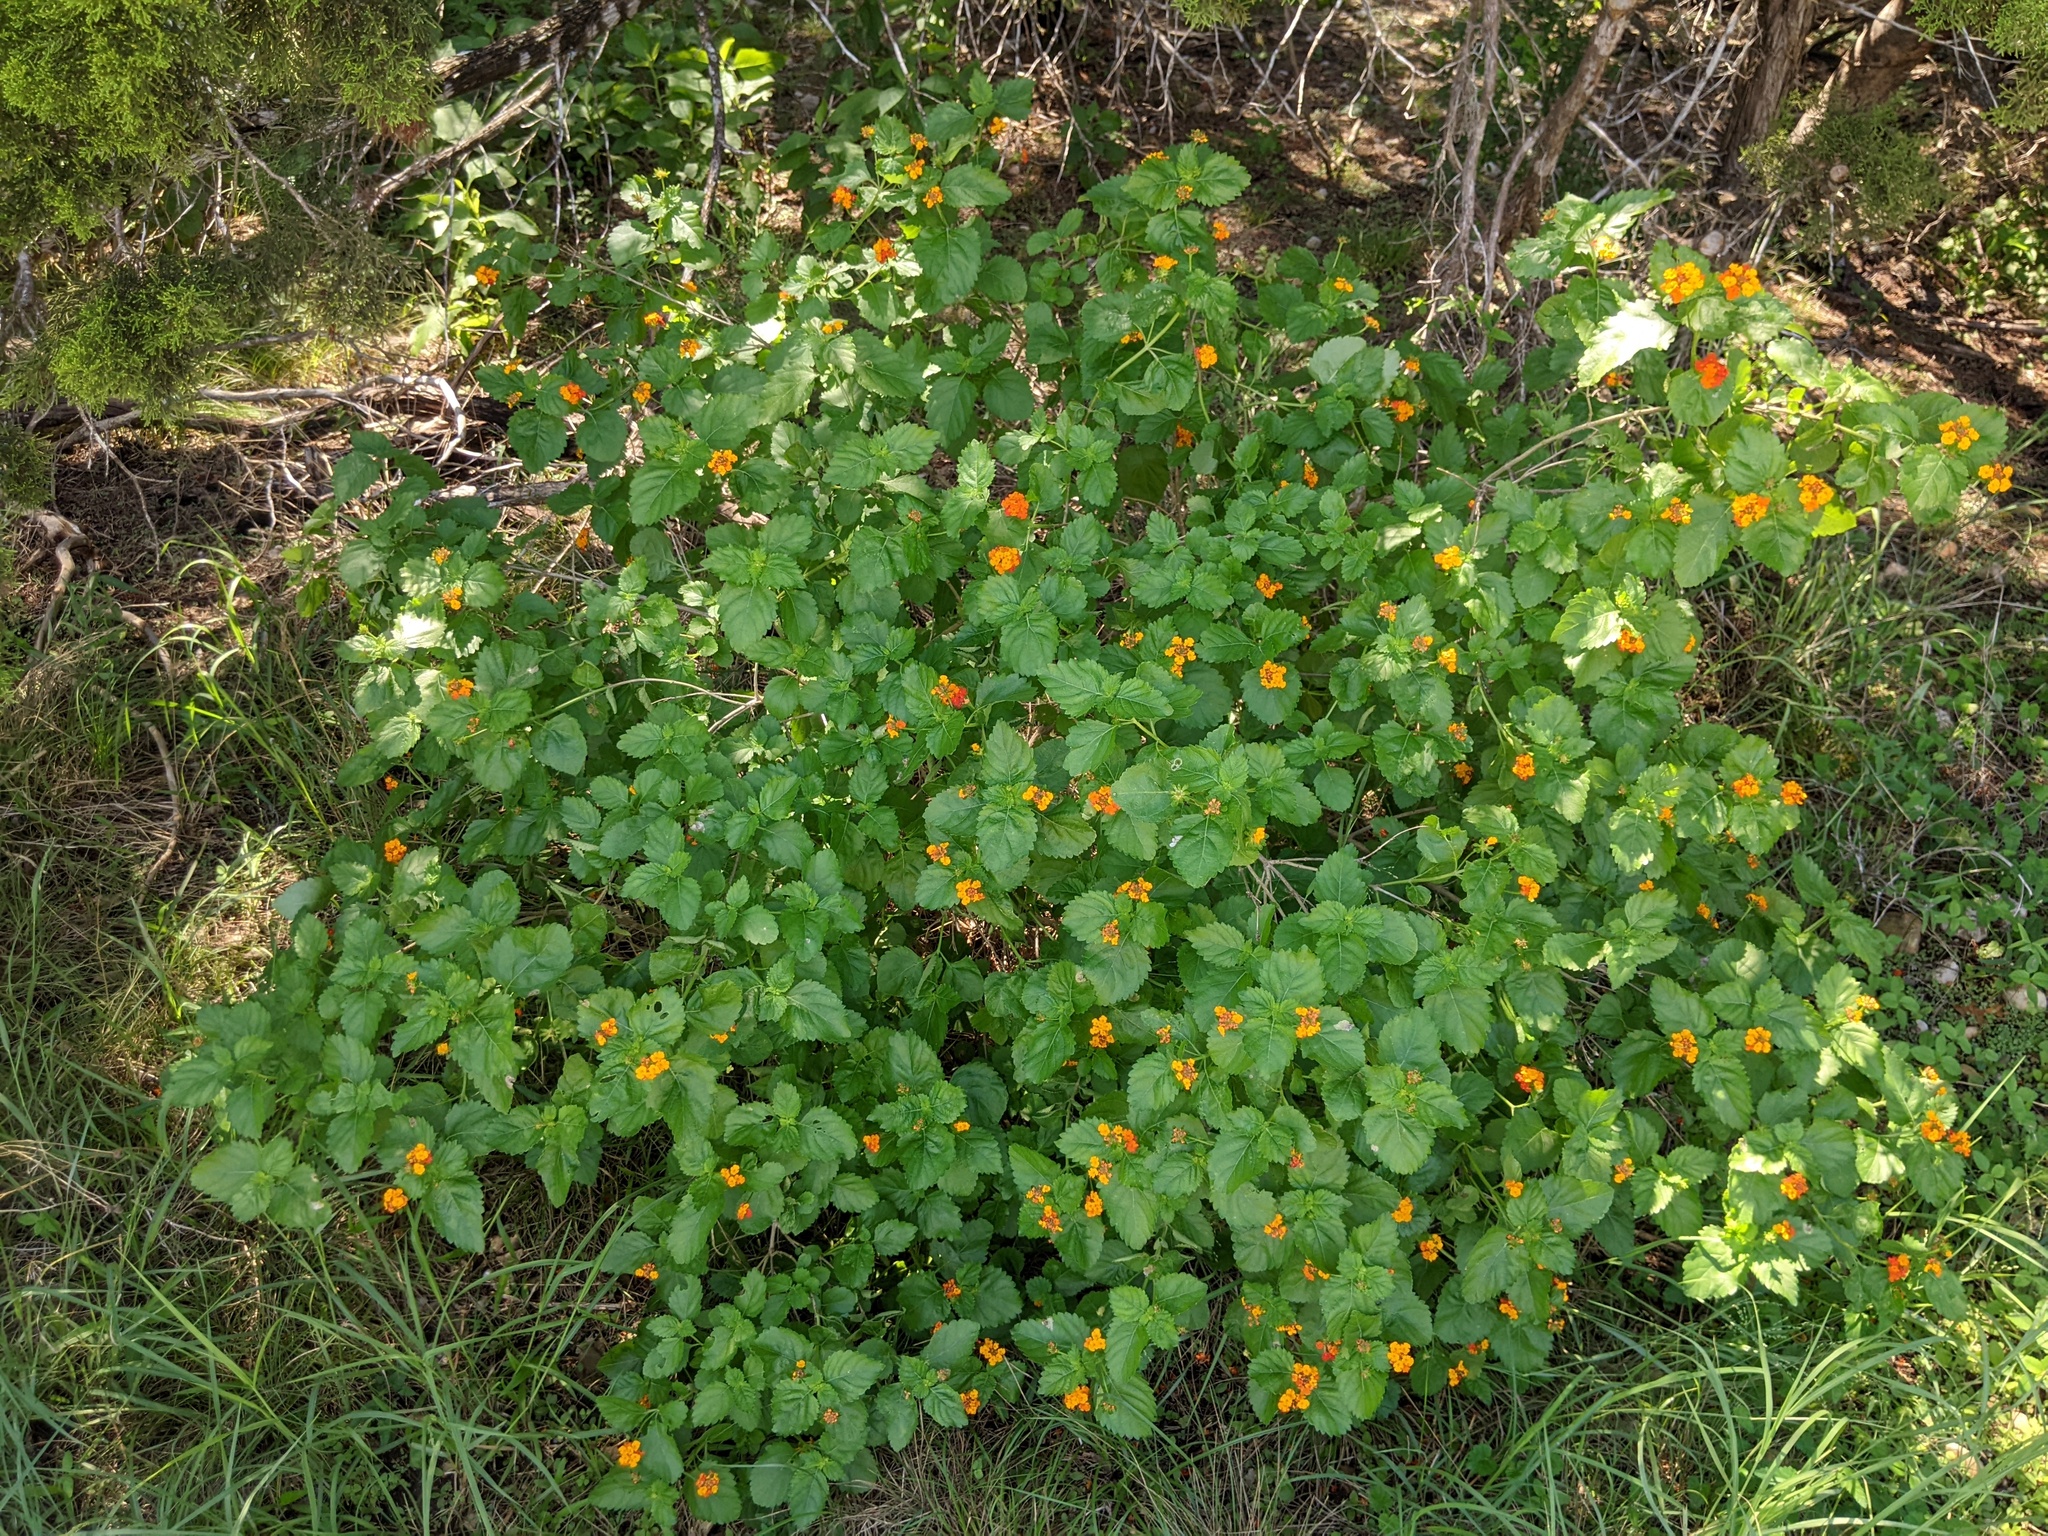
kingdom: Plantae
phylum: Tracheophyta
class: Magnoliopsida
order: Lamiales
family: Verbenaceae
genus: Lantana
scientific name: Lantana urticoides
